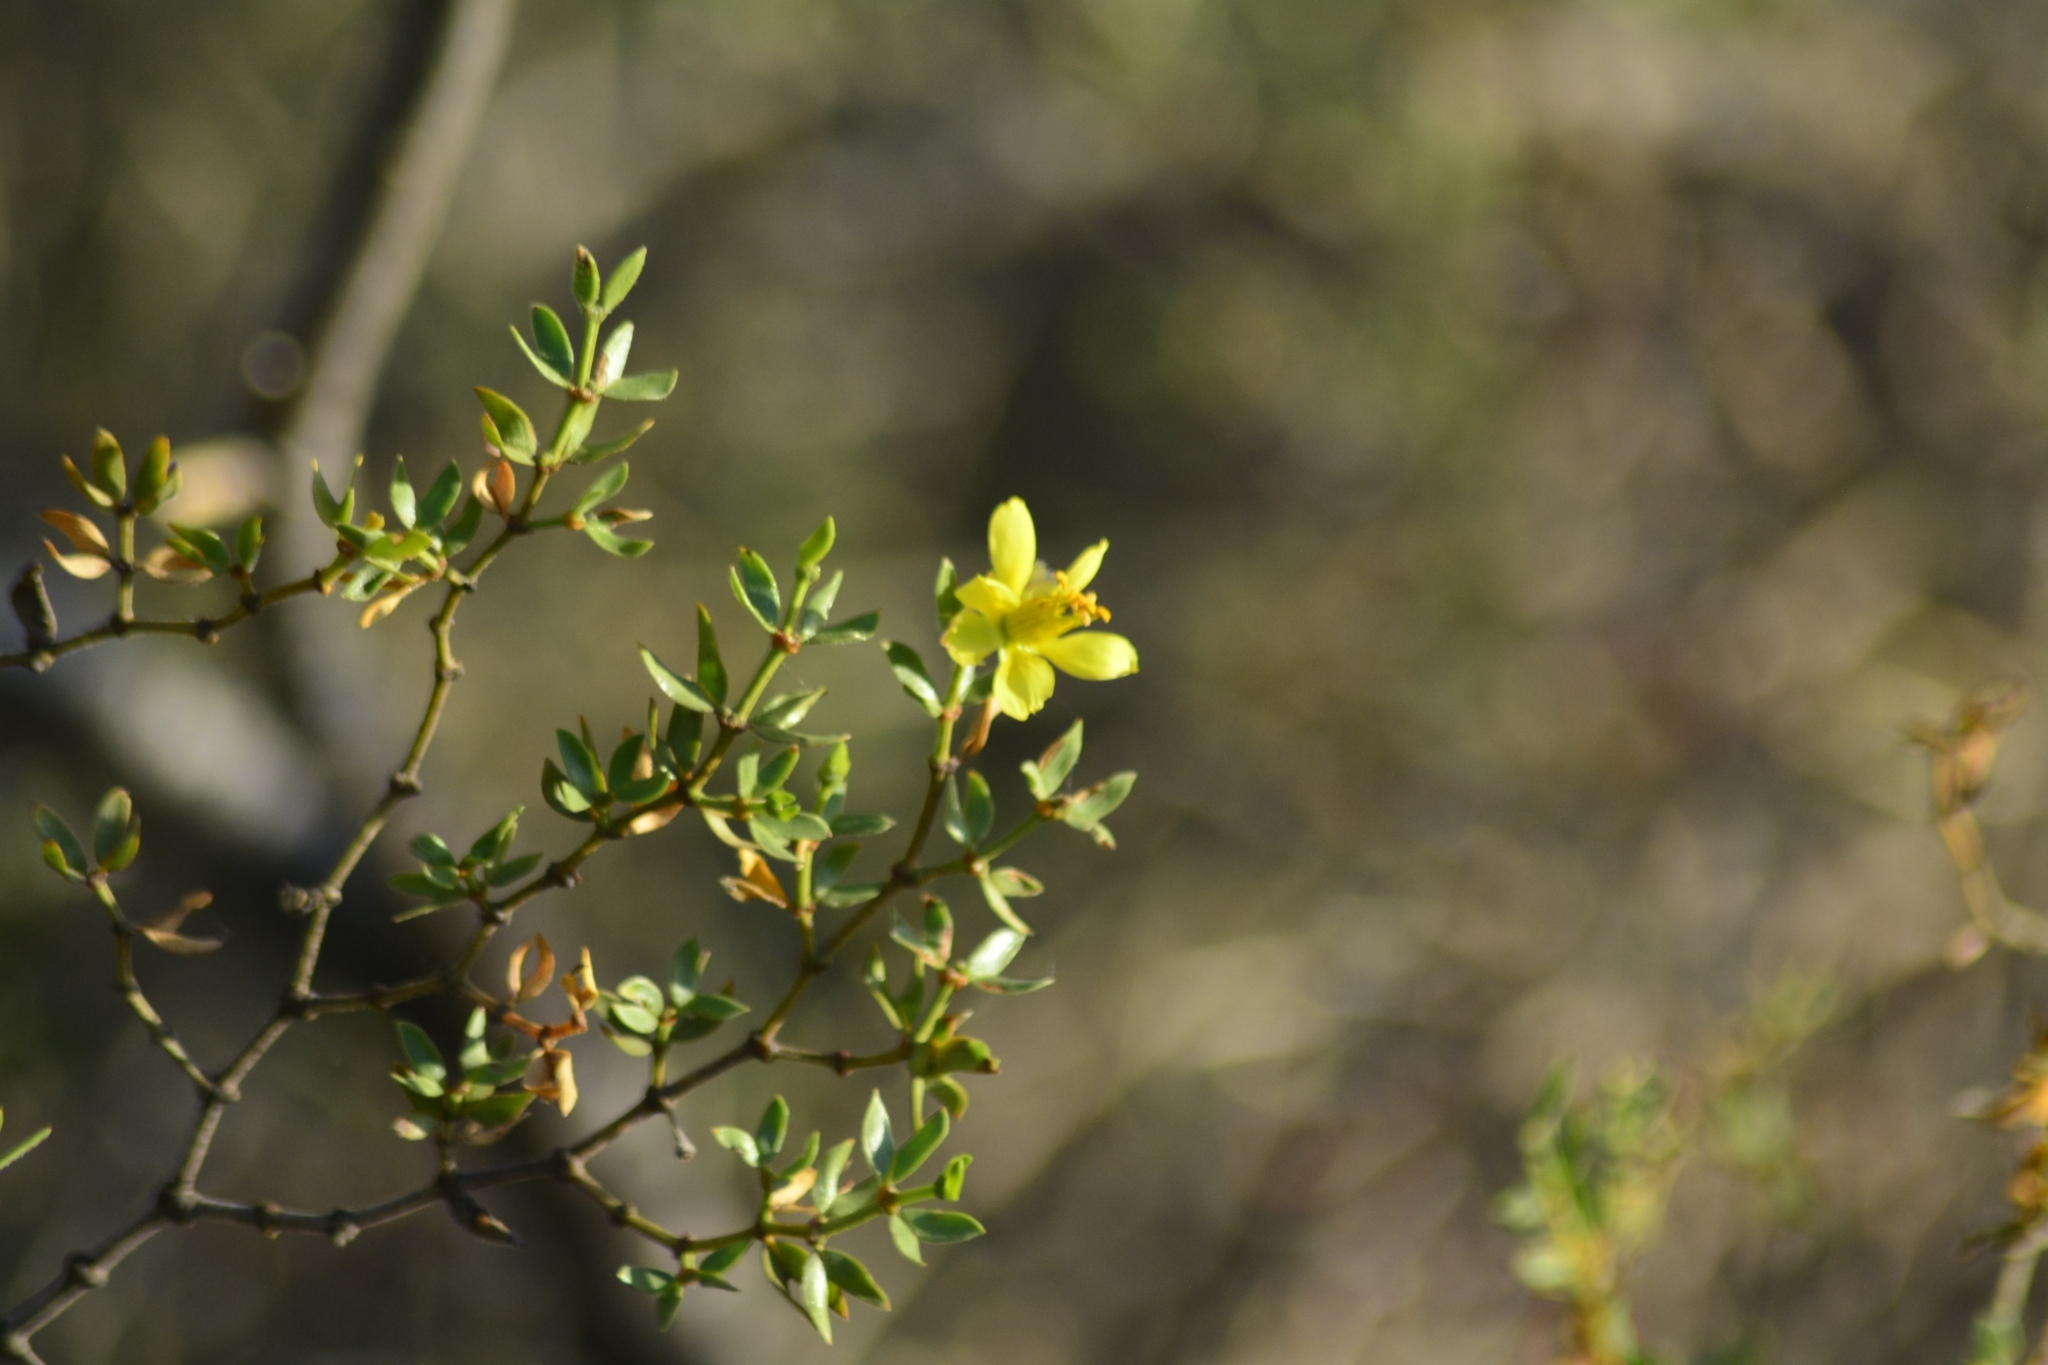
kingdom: Plantae
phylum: Tracheophyta
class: Magnoliopsida
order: Zygophyllales
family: Zygophyllaceae
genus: Larrea
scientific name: Larrea divaricata
